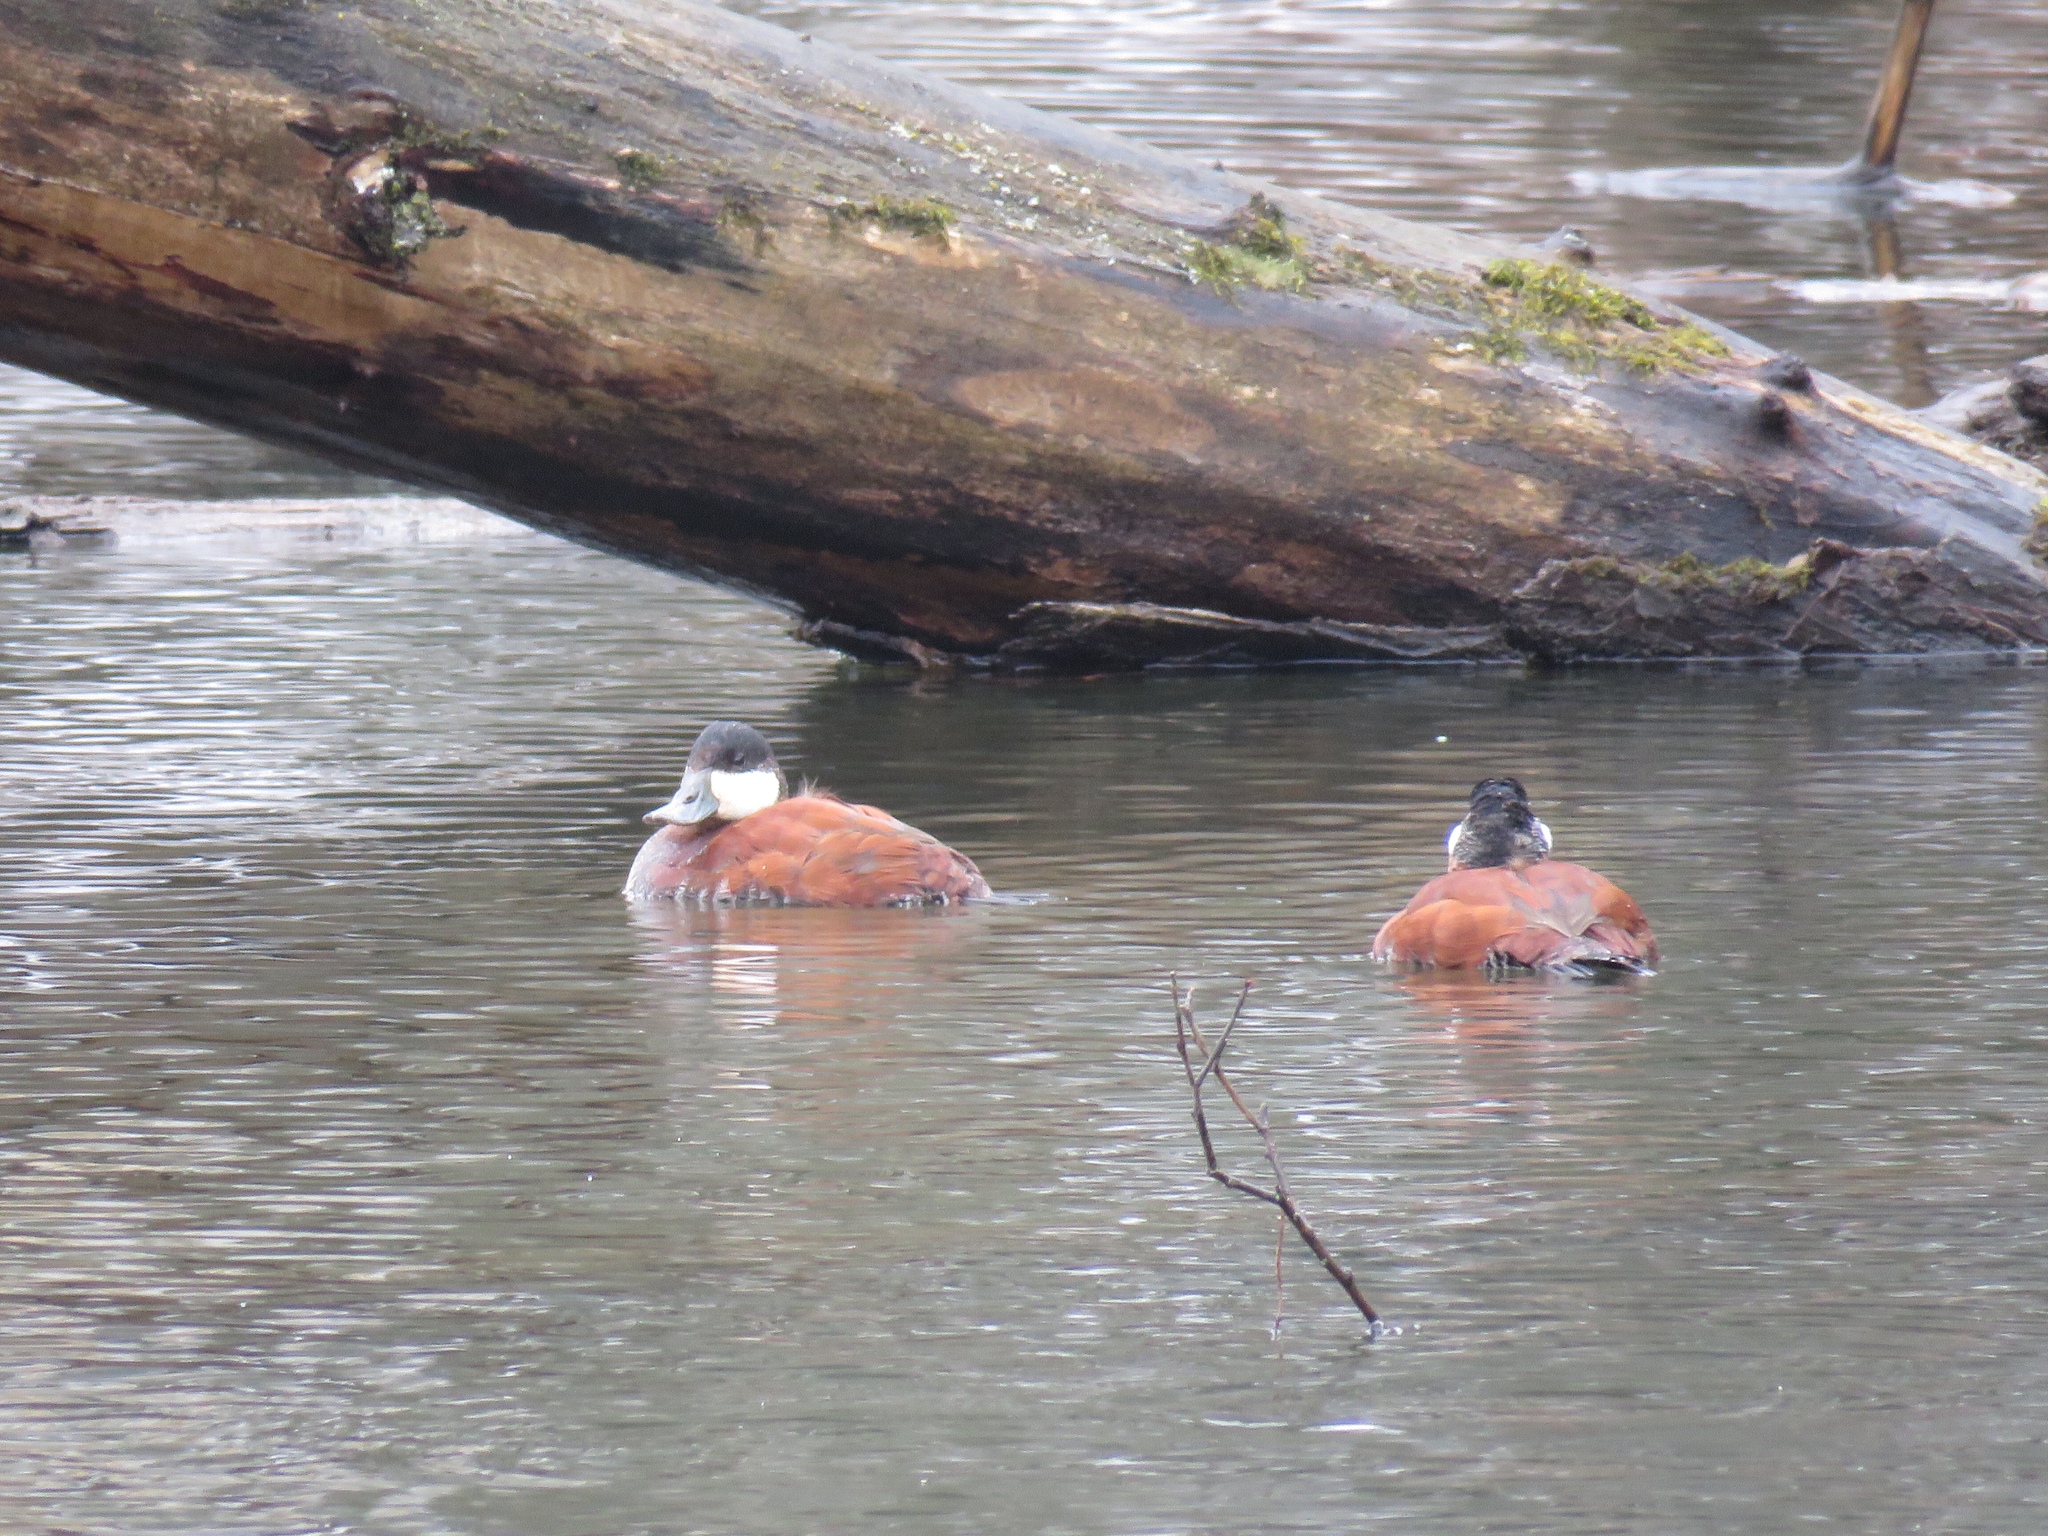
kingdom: Animalia
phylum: Chordata
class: Aves
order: Anseriformes
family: Anatidae
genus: Oxyura
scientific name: Oxyura jamaicensis
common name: Ruddy duck
